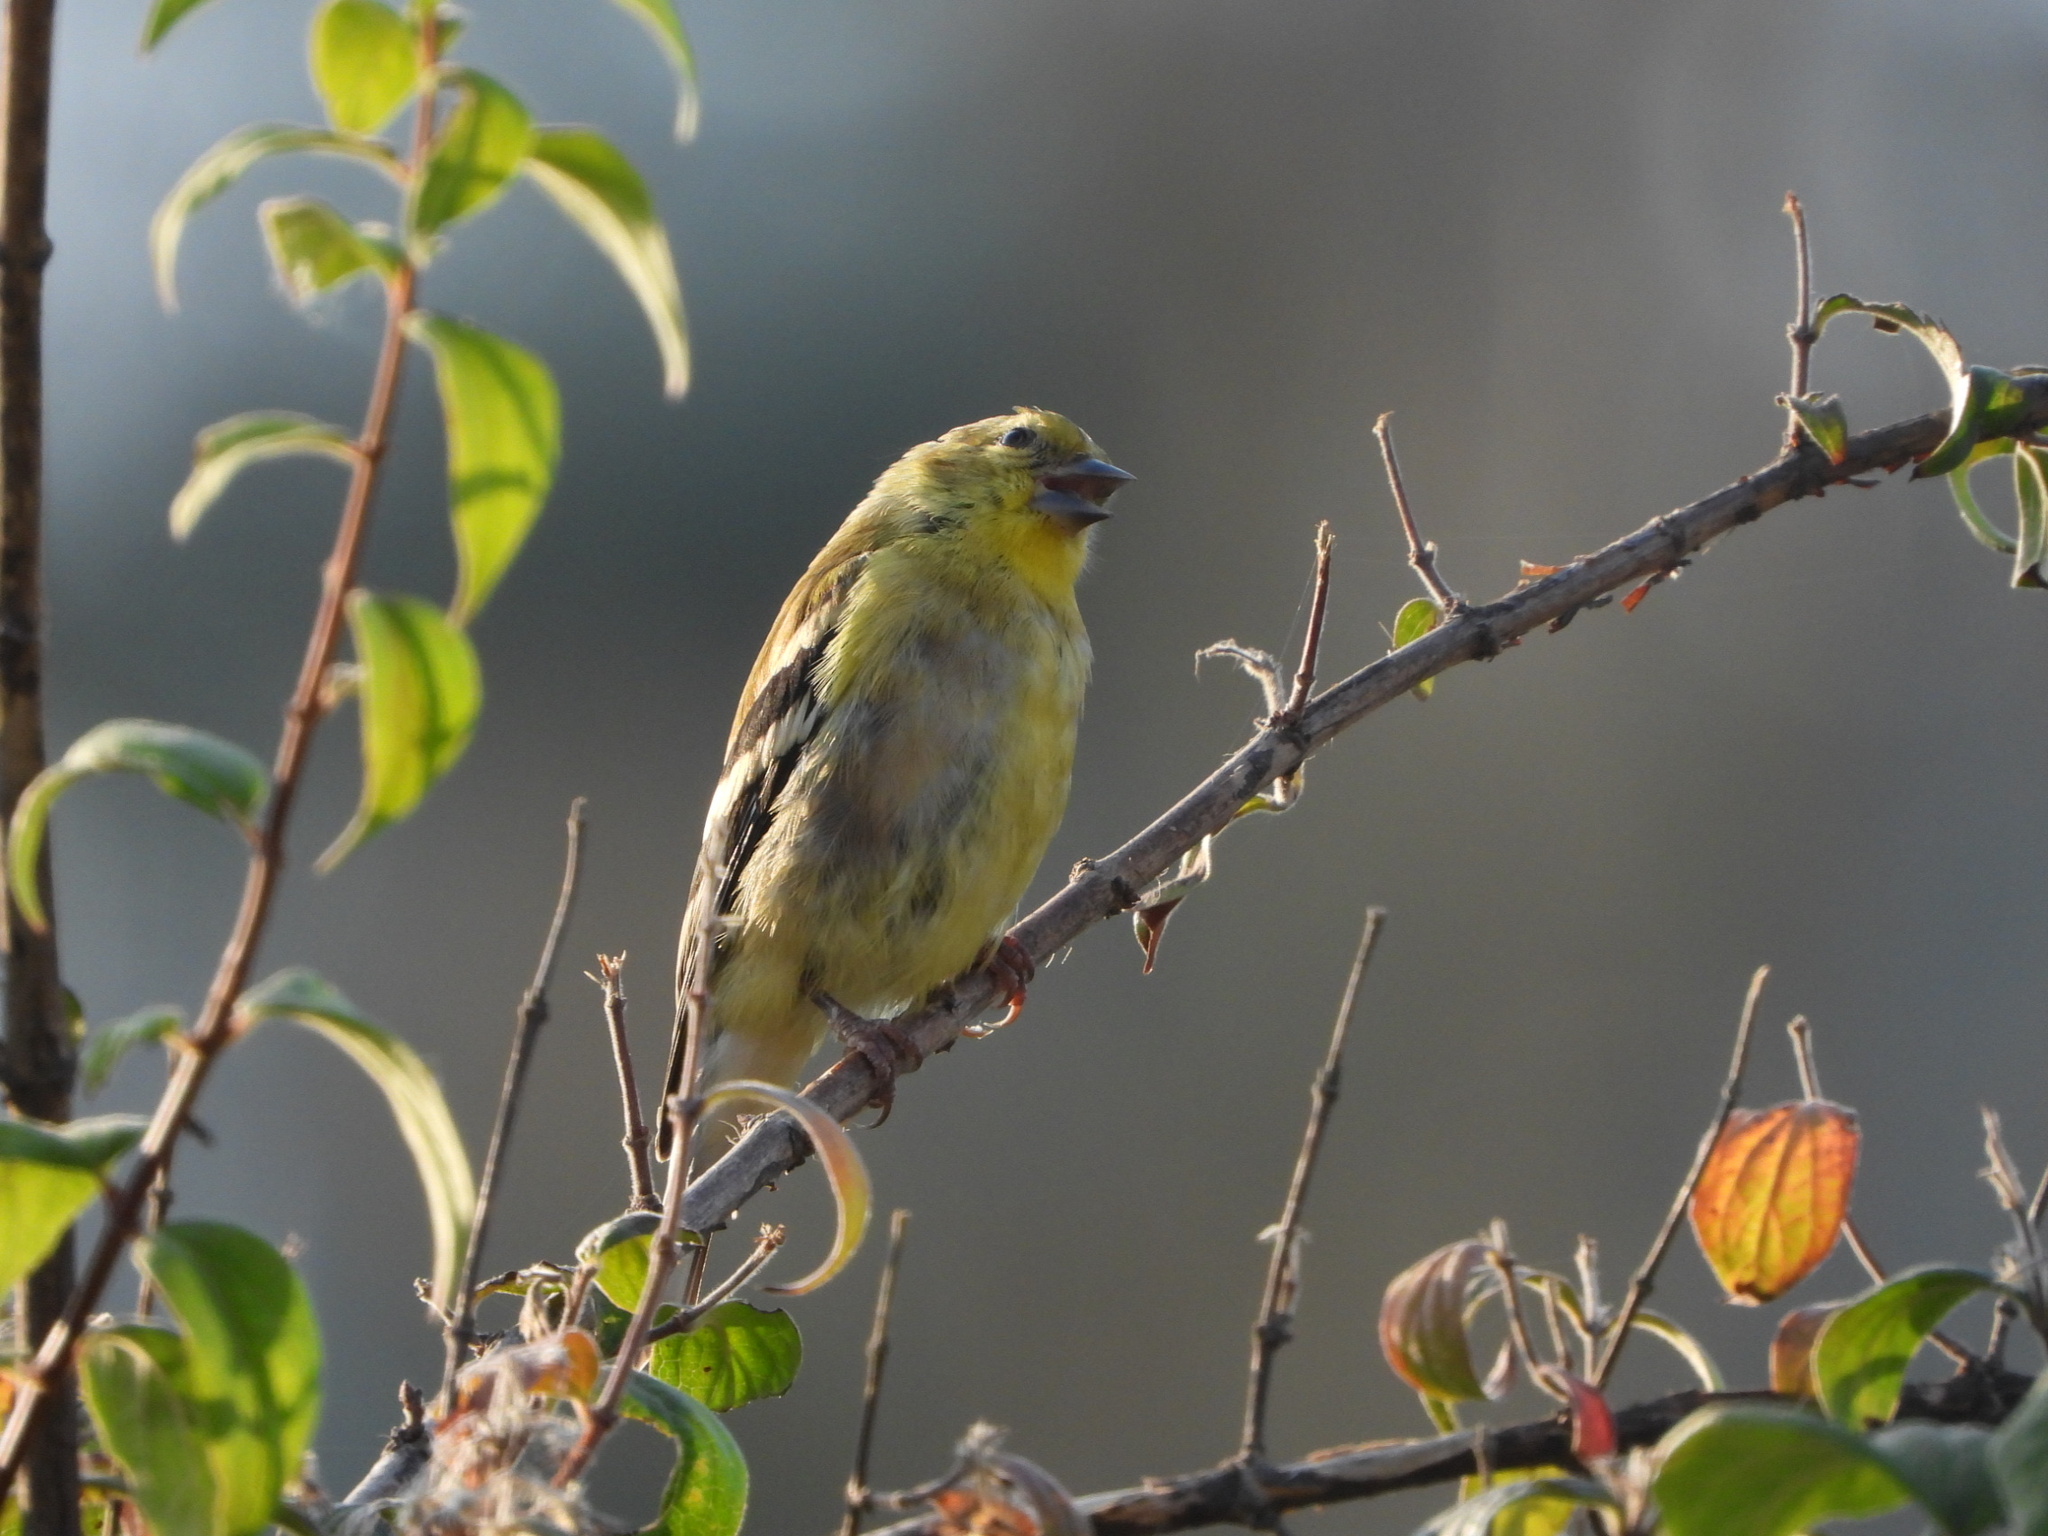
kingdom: Animalia
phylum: Chordata
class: Aves
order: Passeriformes
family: Fringillidae
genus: Spinus
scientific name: Spinus tristis
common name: American goldfinch
